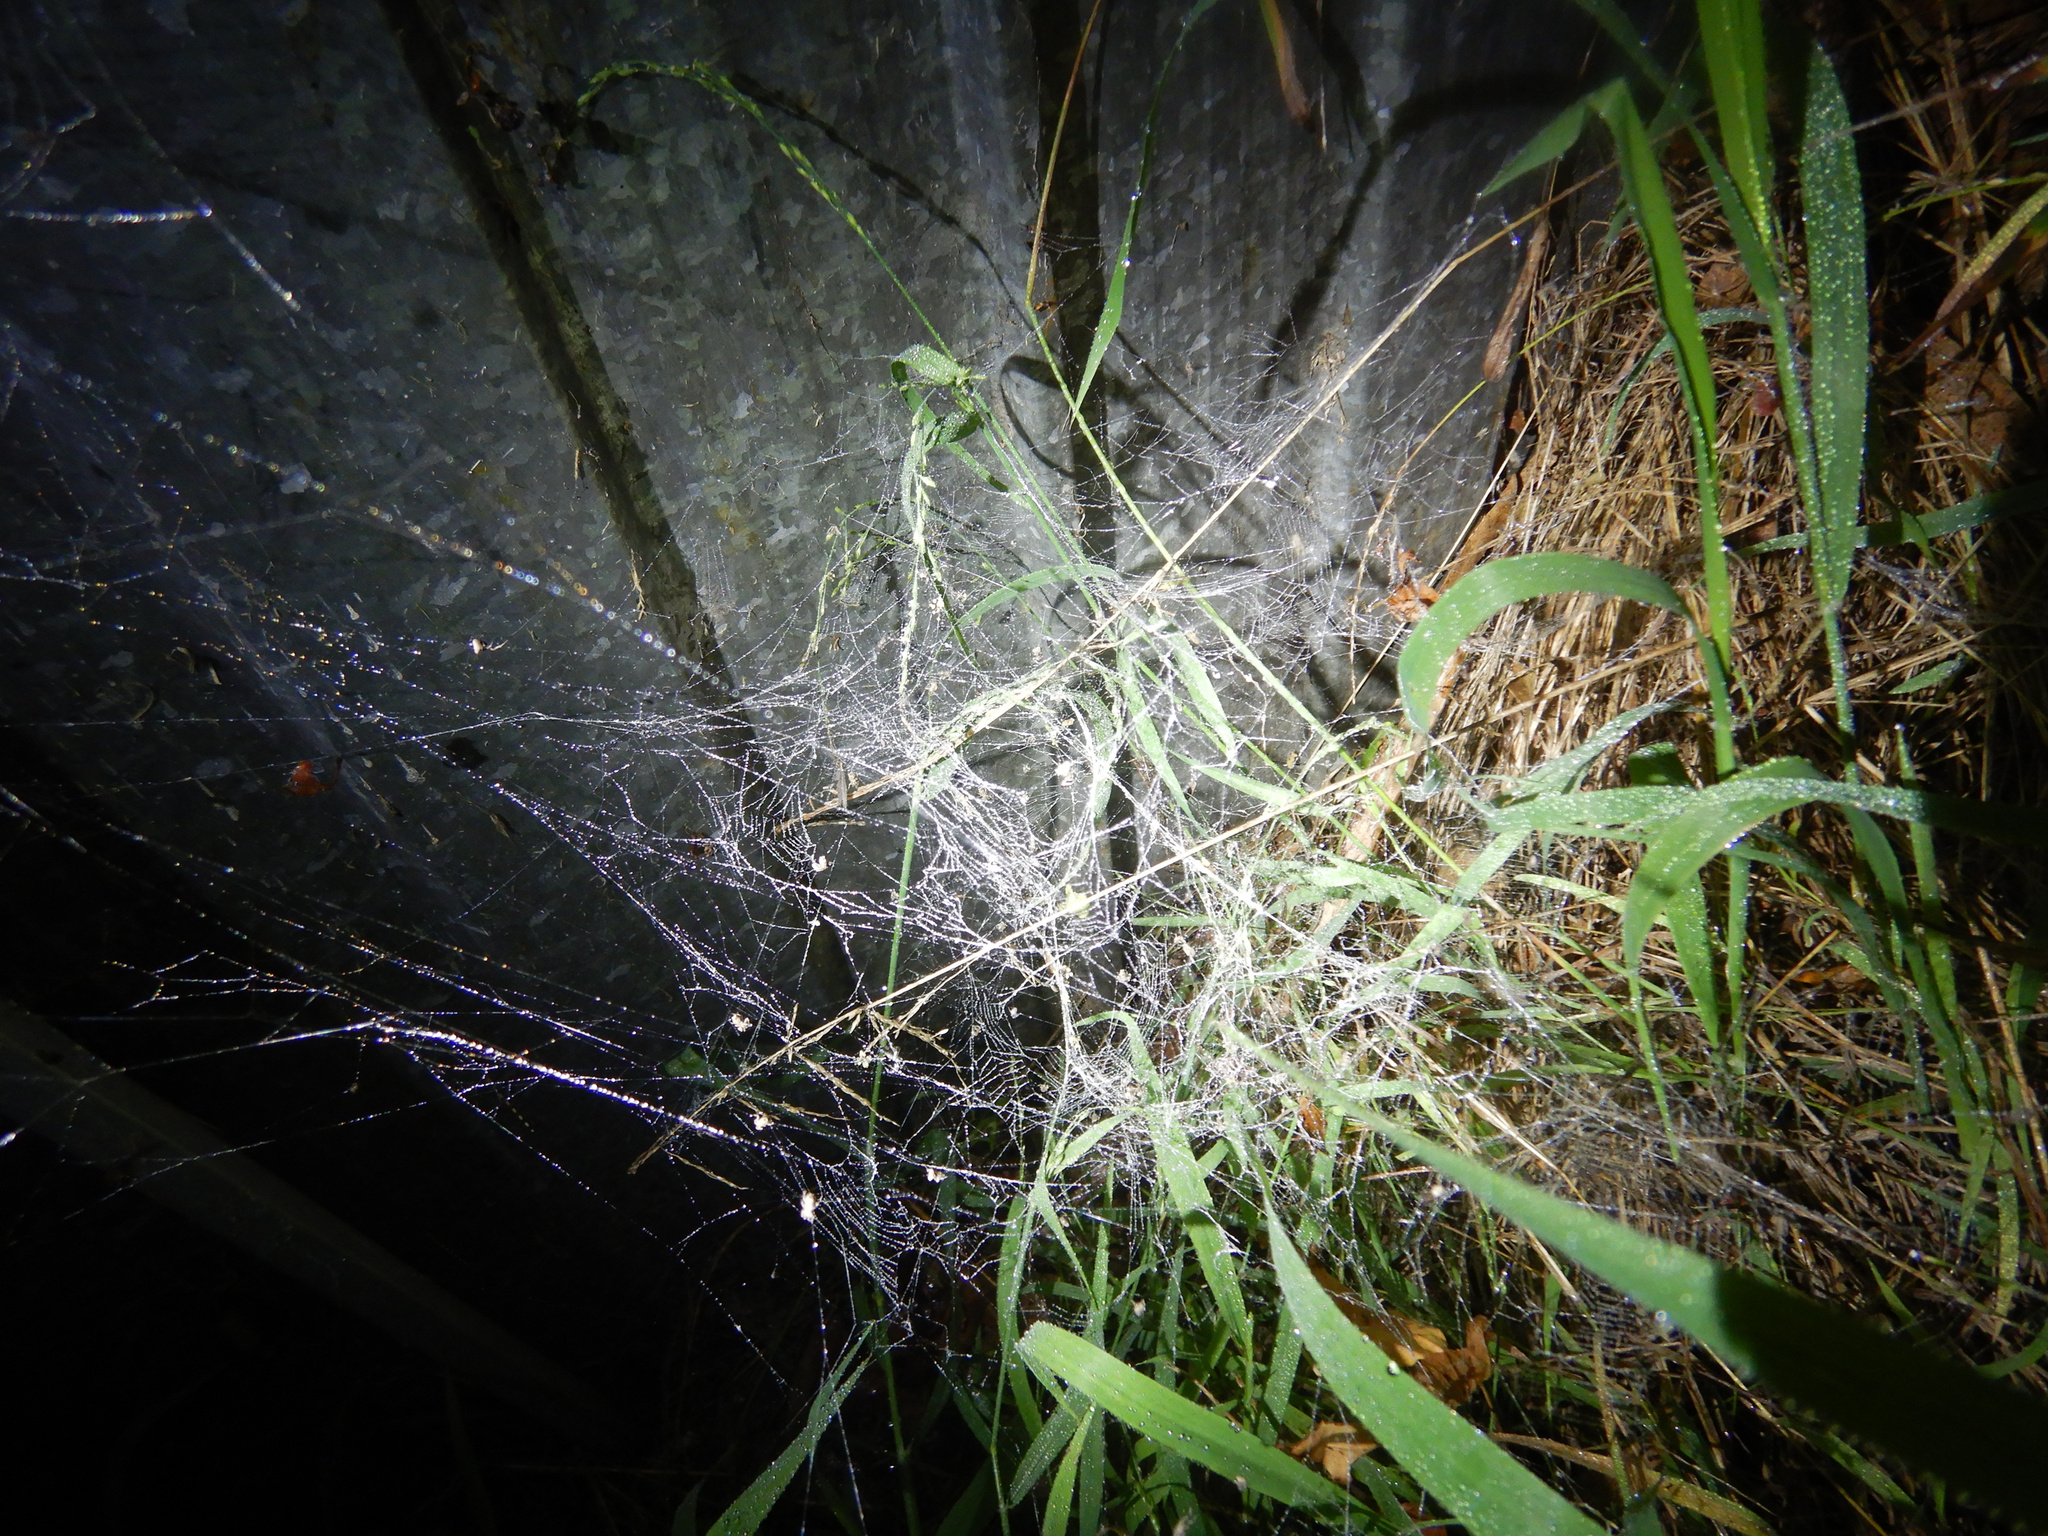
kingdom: Animalia
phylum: Arthropoda
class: Arachnida
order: Araneae
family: Uloboridae
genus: Philoponella
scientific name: Philoponella congregabilis
